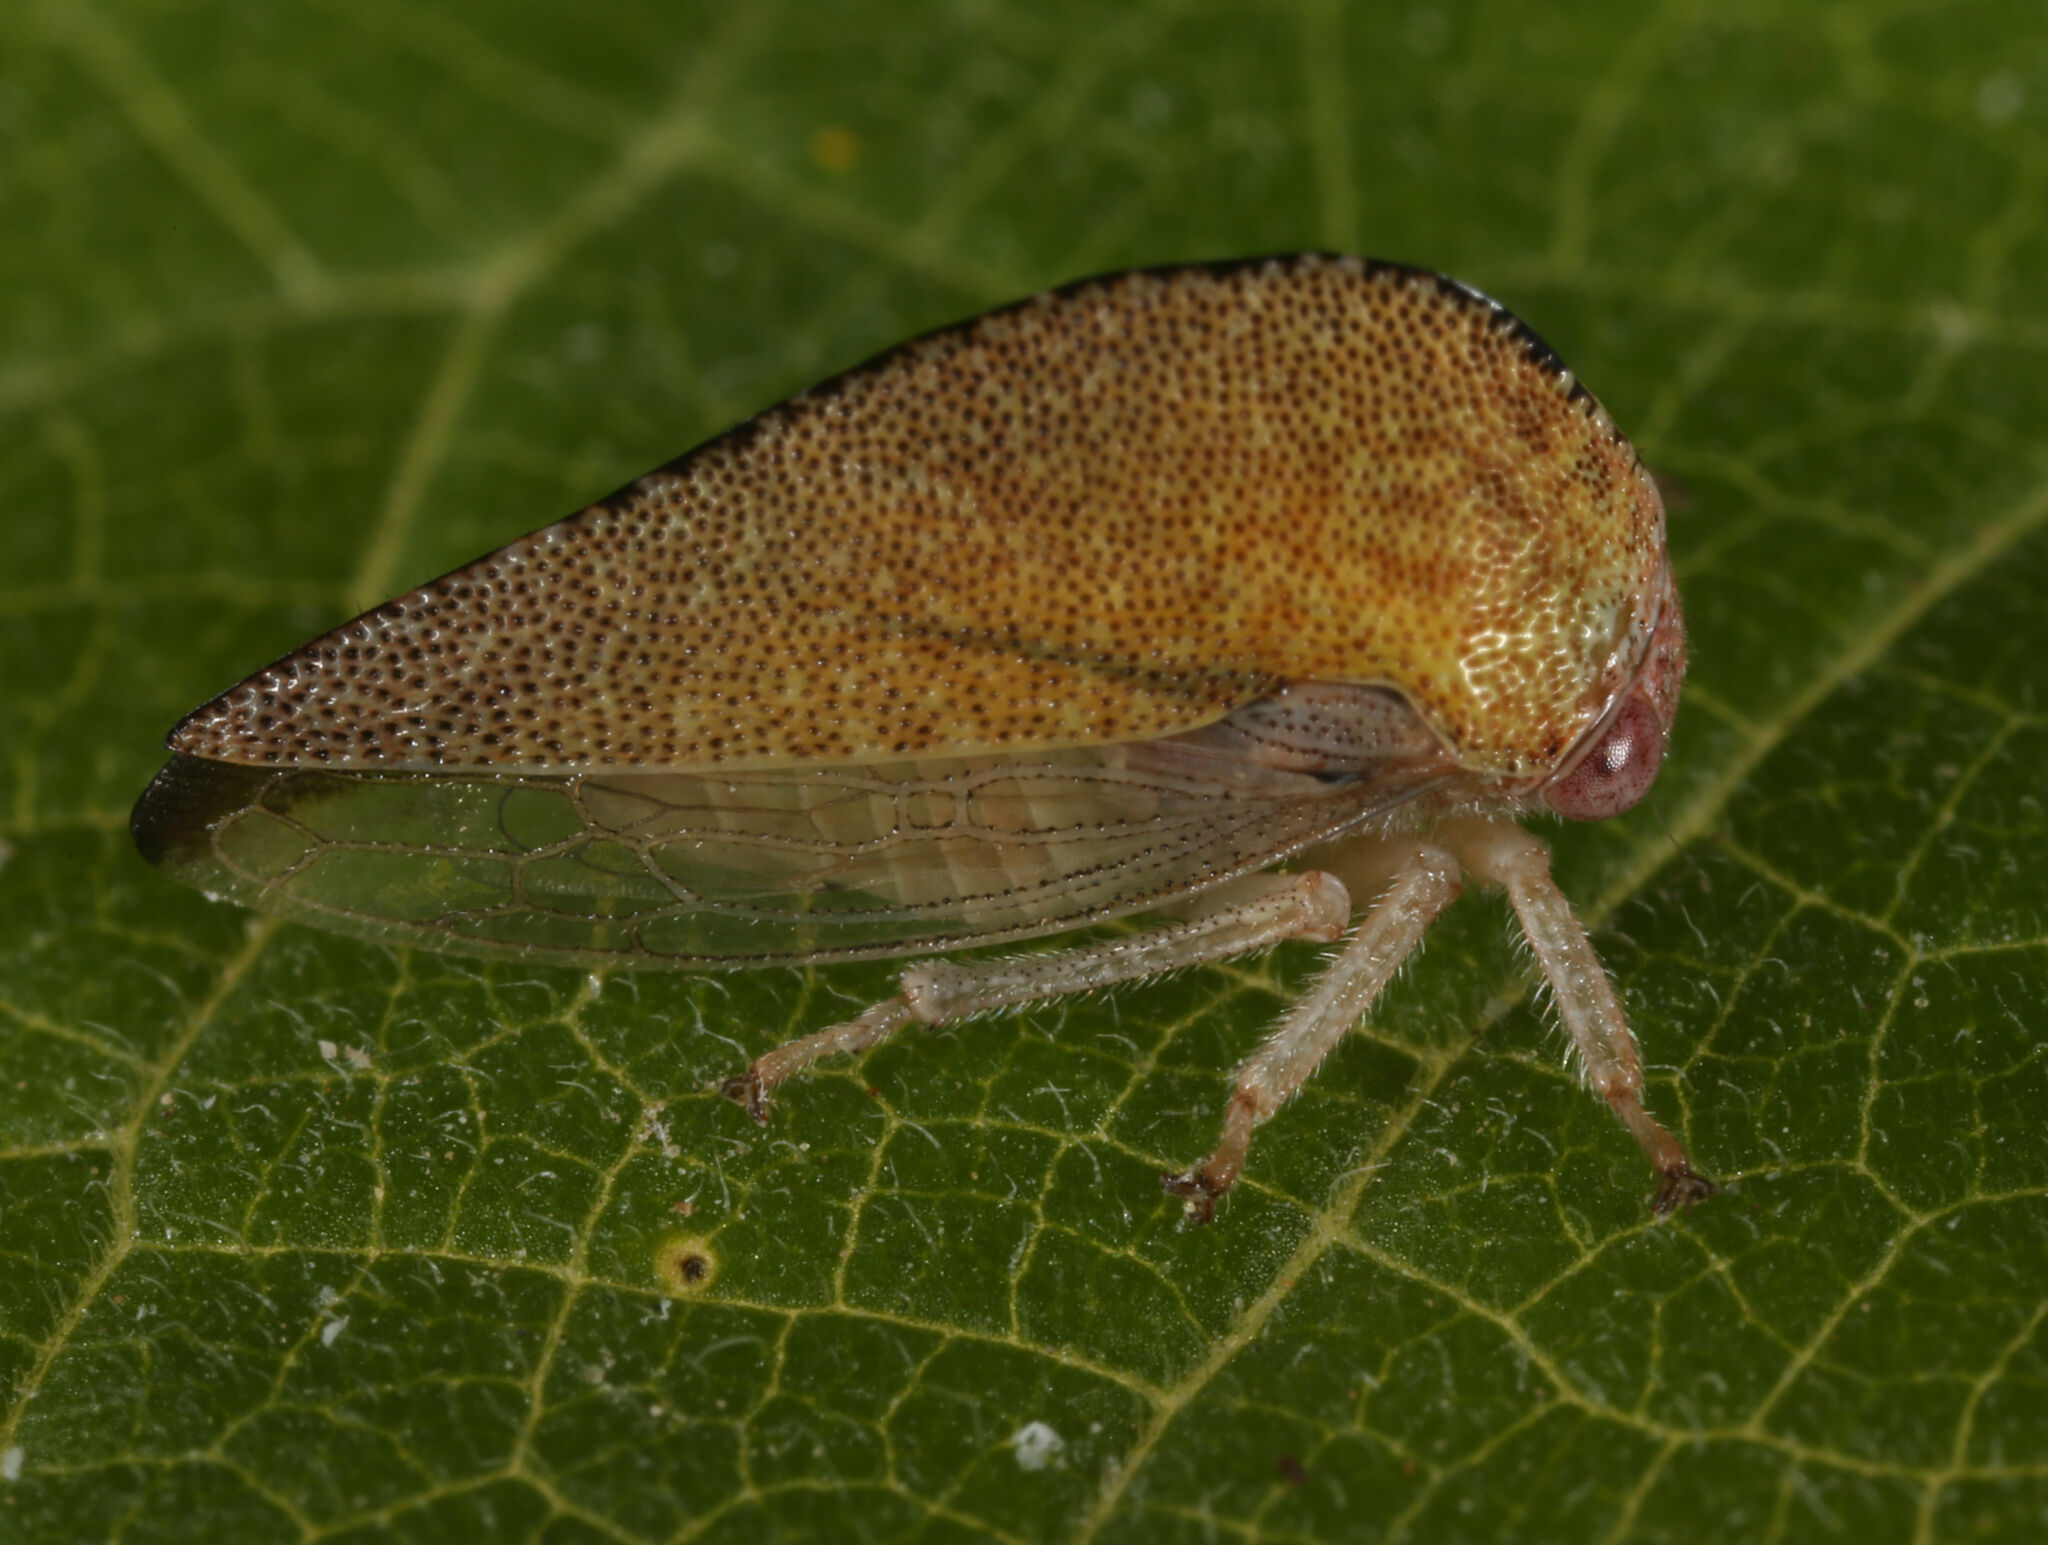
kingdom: Animalia
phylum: Arthropoda
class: Insecta
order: Hemiptera
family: Membracidae
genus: Atymna
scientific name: Atymna simplex
